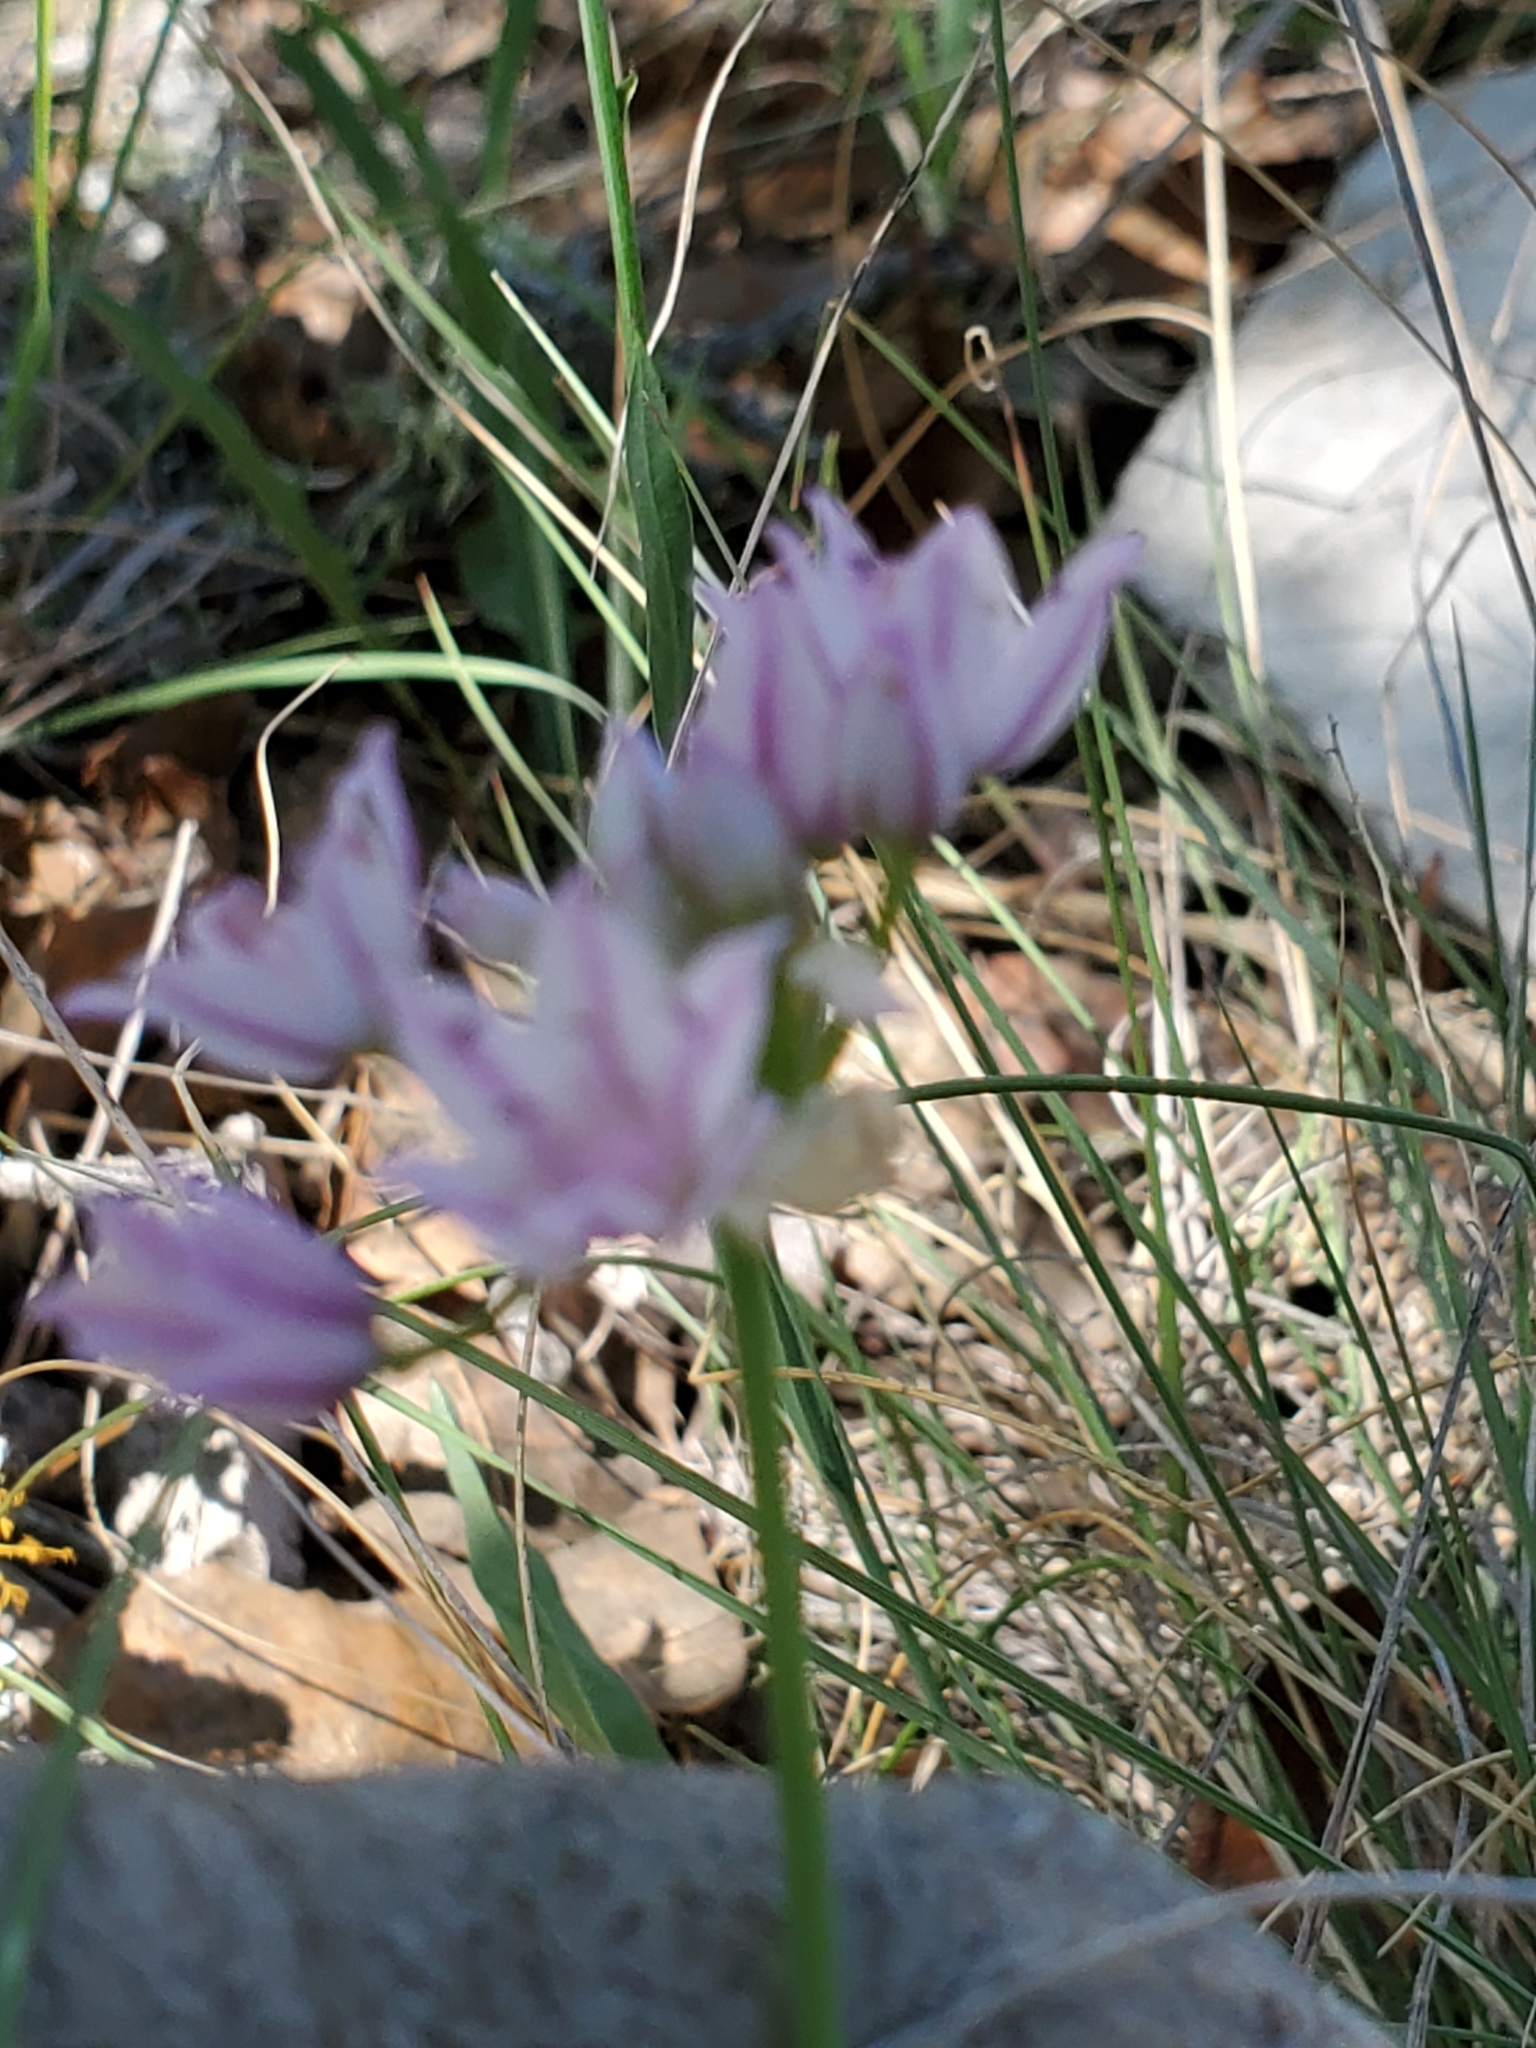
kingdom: Plantae
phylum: Tracheophyta
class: Liliopsida
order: Asparagales
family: Amaryllidaceae
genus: Allium
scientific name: Allium drummondii
